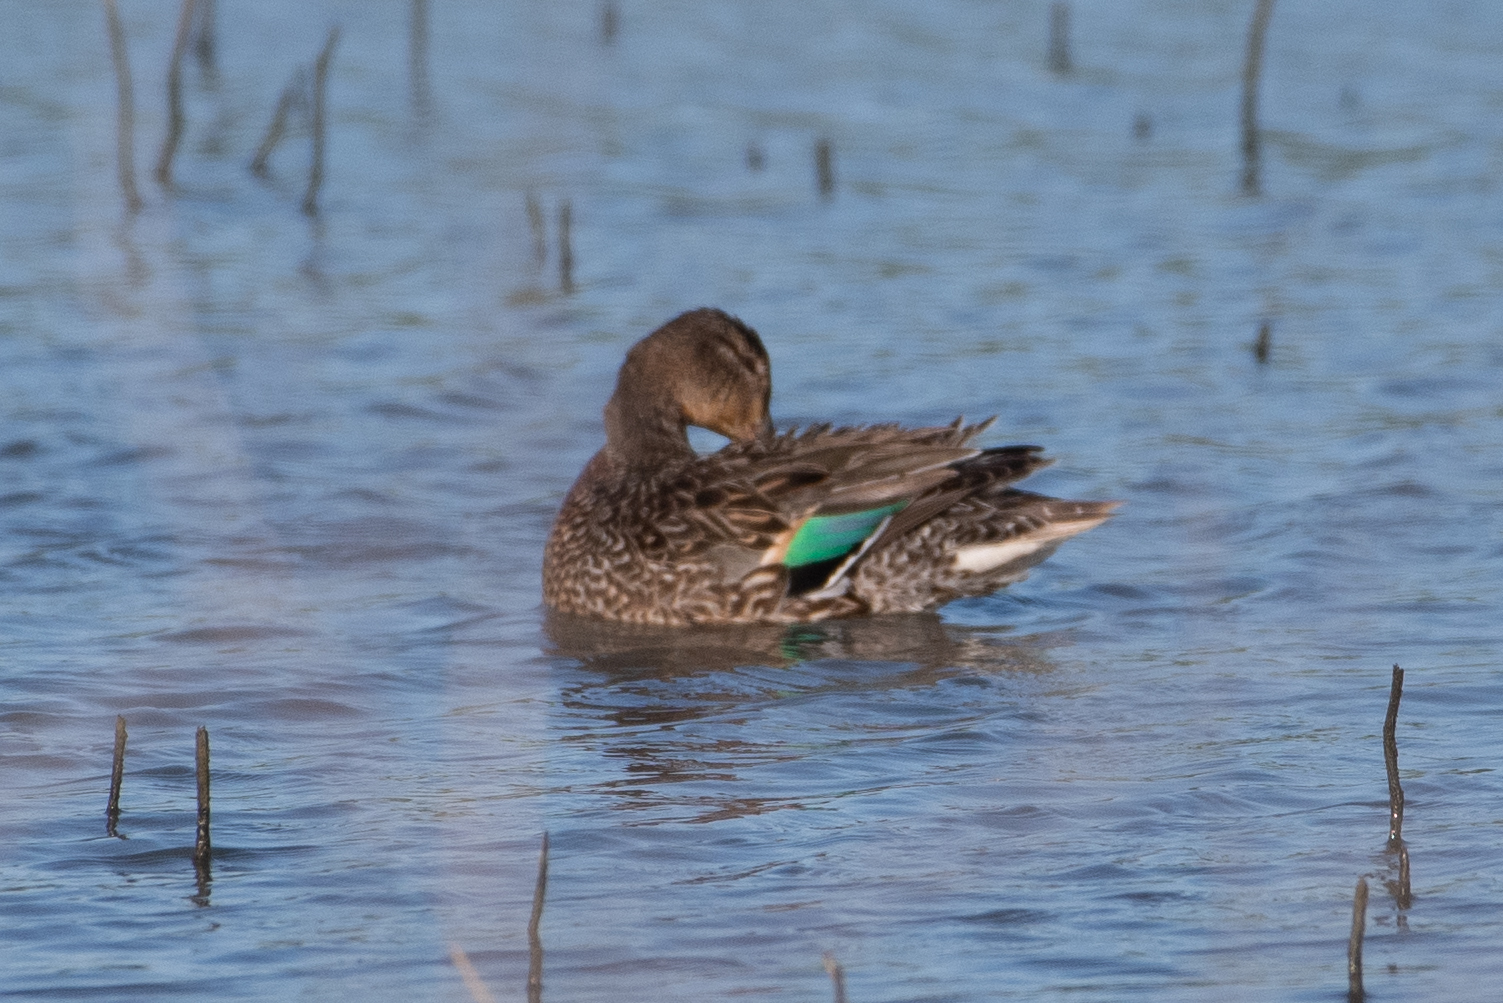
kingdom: Animalia
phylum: Chordata
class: Aves
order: Anseriformes
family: Anatidae
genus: Anas
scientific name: Anas crecca
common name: Eurasian teal
